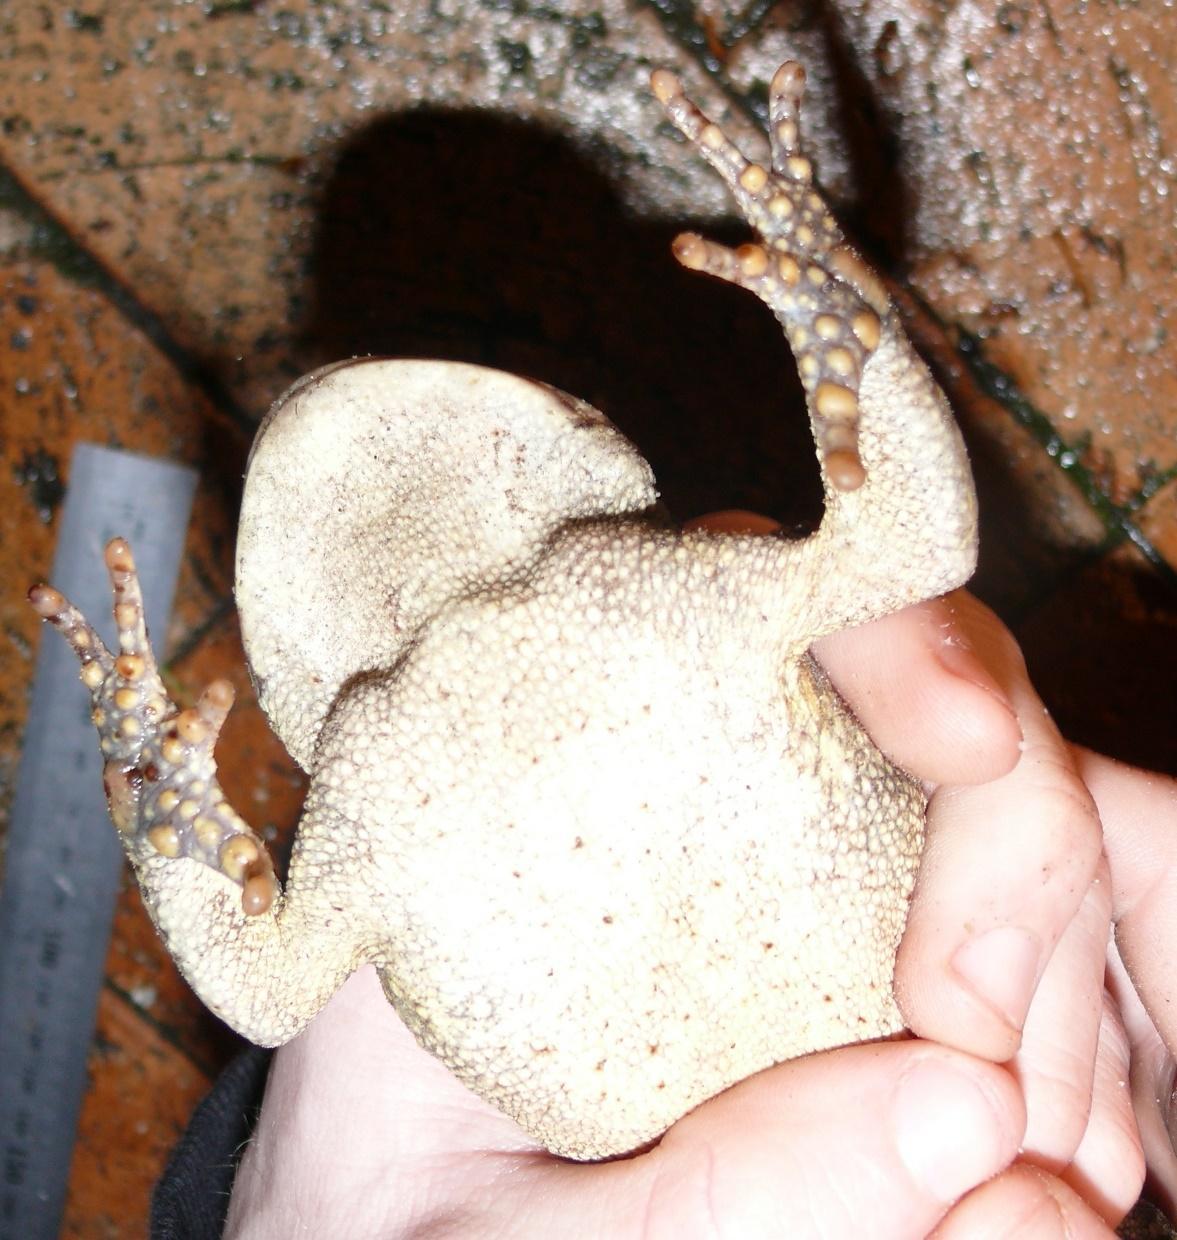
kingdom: Animalia
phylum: Chordata
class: Amphibia
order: Anura
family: Bufonidae
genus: Sclerophrys
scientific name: Sclerophrys pantherina
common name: Panther toad
